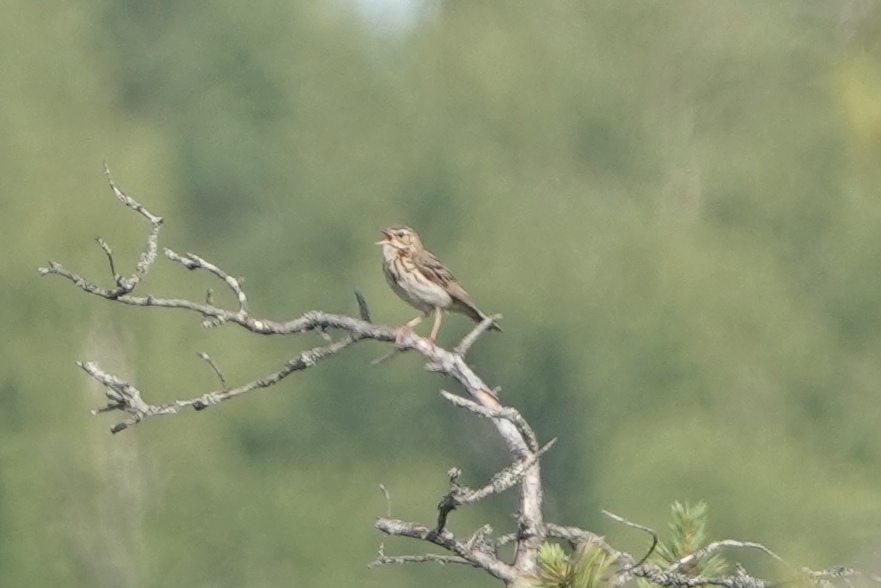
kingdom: Animalia
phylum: Chordata
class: Aves
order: Passeriformes
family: Motacillidae
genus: Anthus
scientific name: Anthus trivialis
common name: Tree pipit
